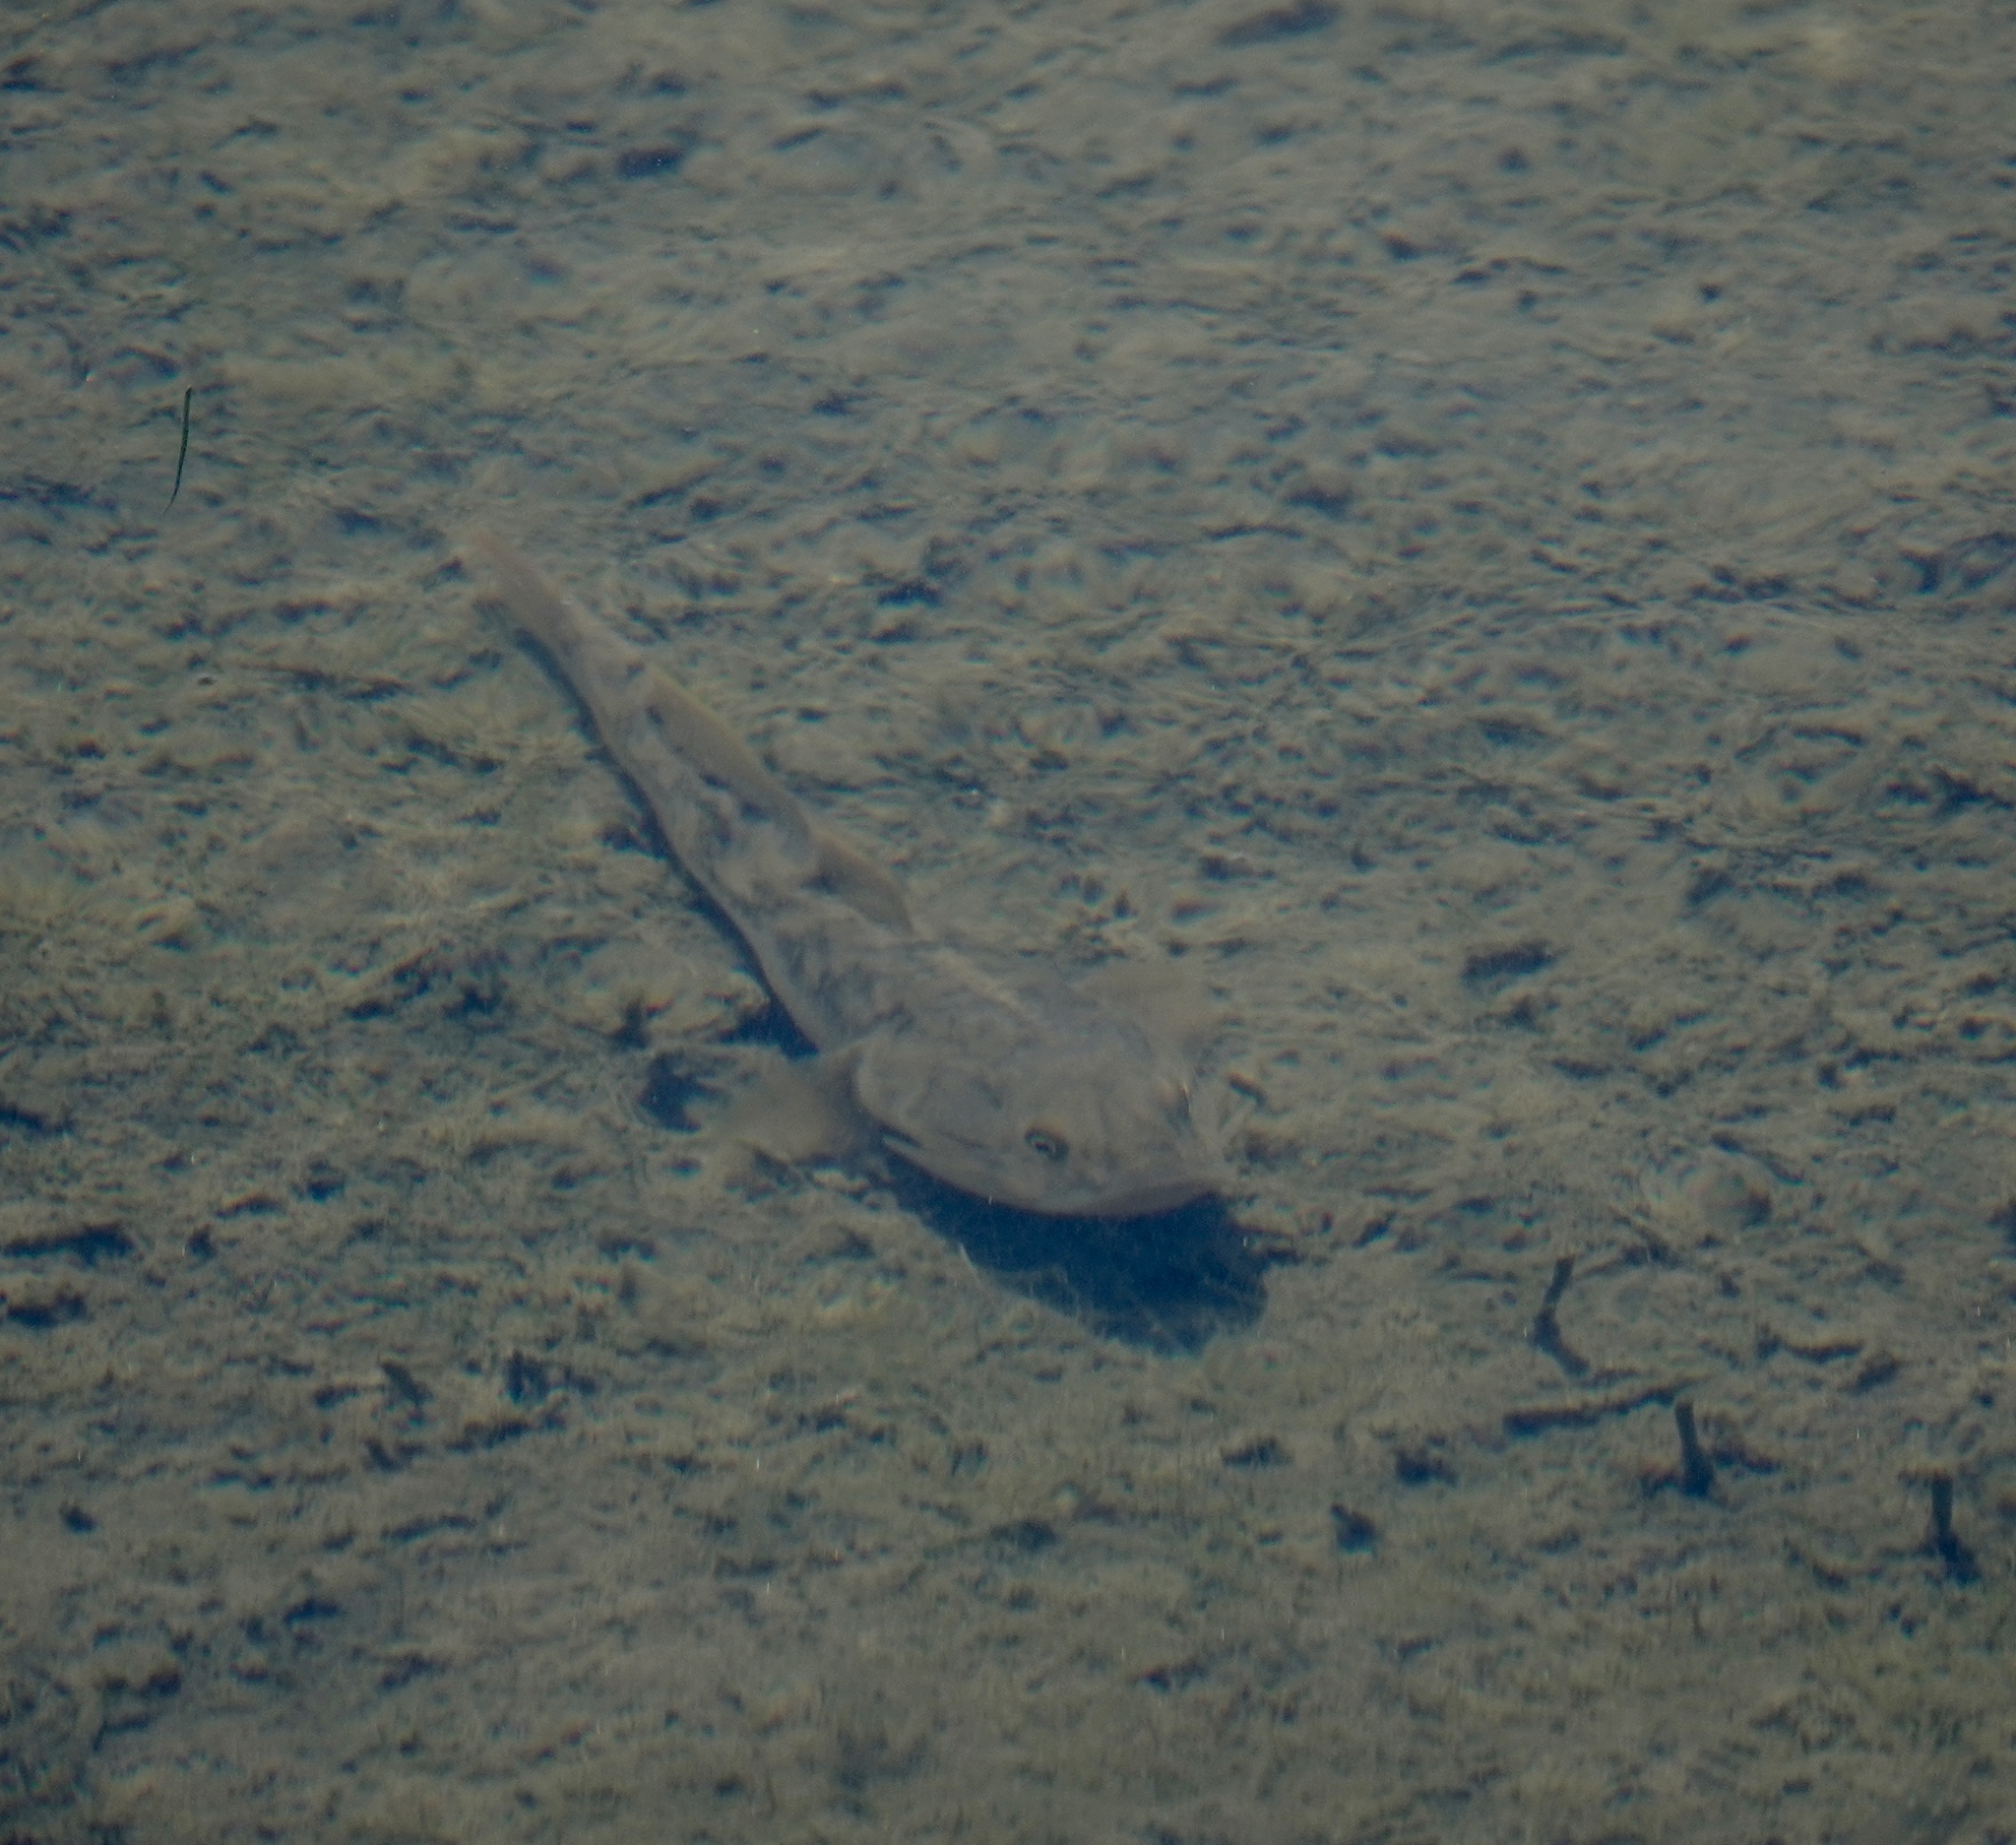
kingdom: Animalia
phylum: Chordata
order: Perciformes
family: Gobiidae
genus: Gillichthys
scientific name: Gillichthys mirabilis
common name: Longjaw mudsucker
